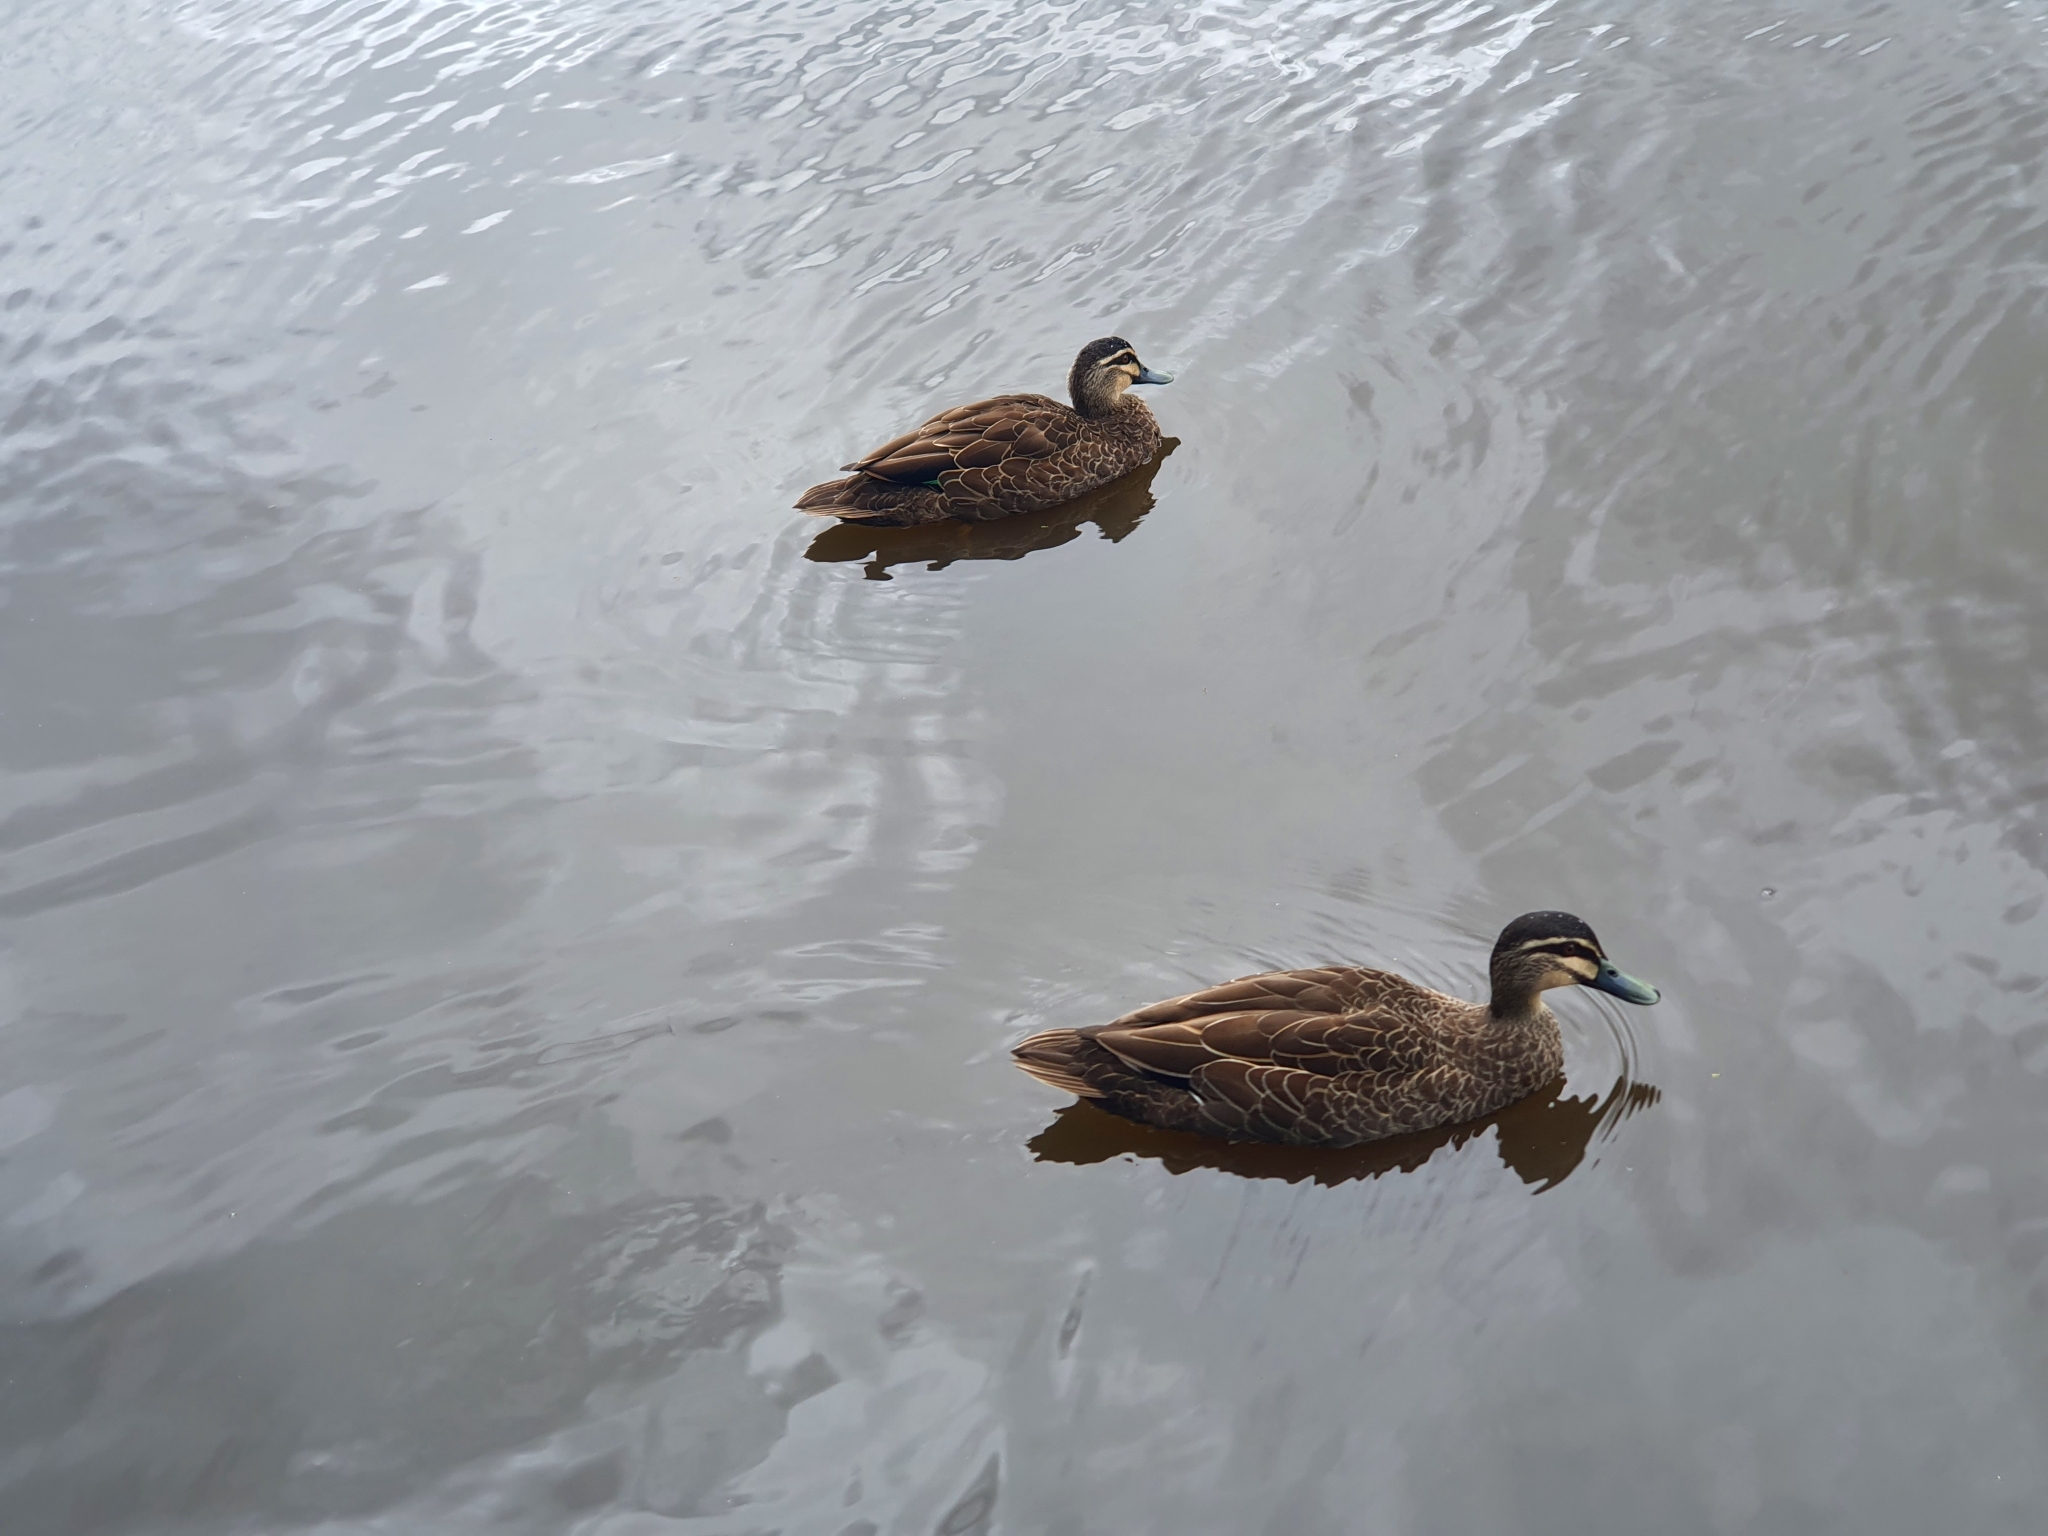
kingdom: Animalia
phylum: Chordata
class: Aves
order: Anseriformes
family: Anatidae
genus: Anas
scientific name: Anas superciliosa
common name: Pacific black duck
